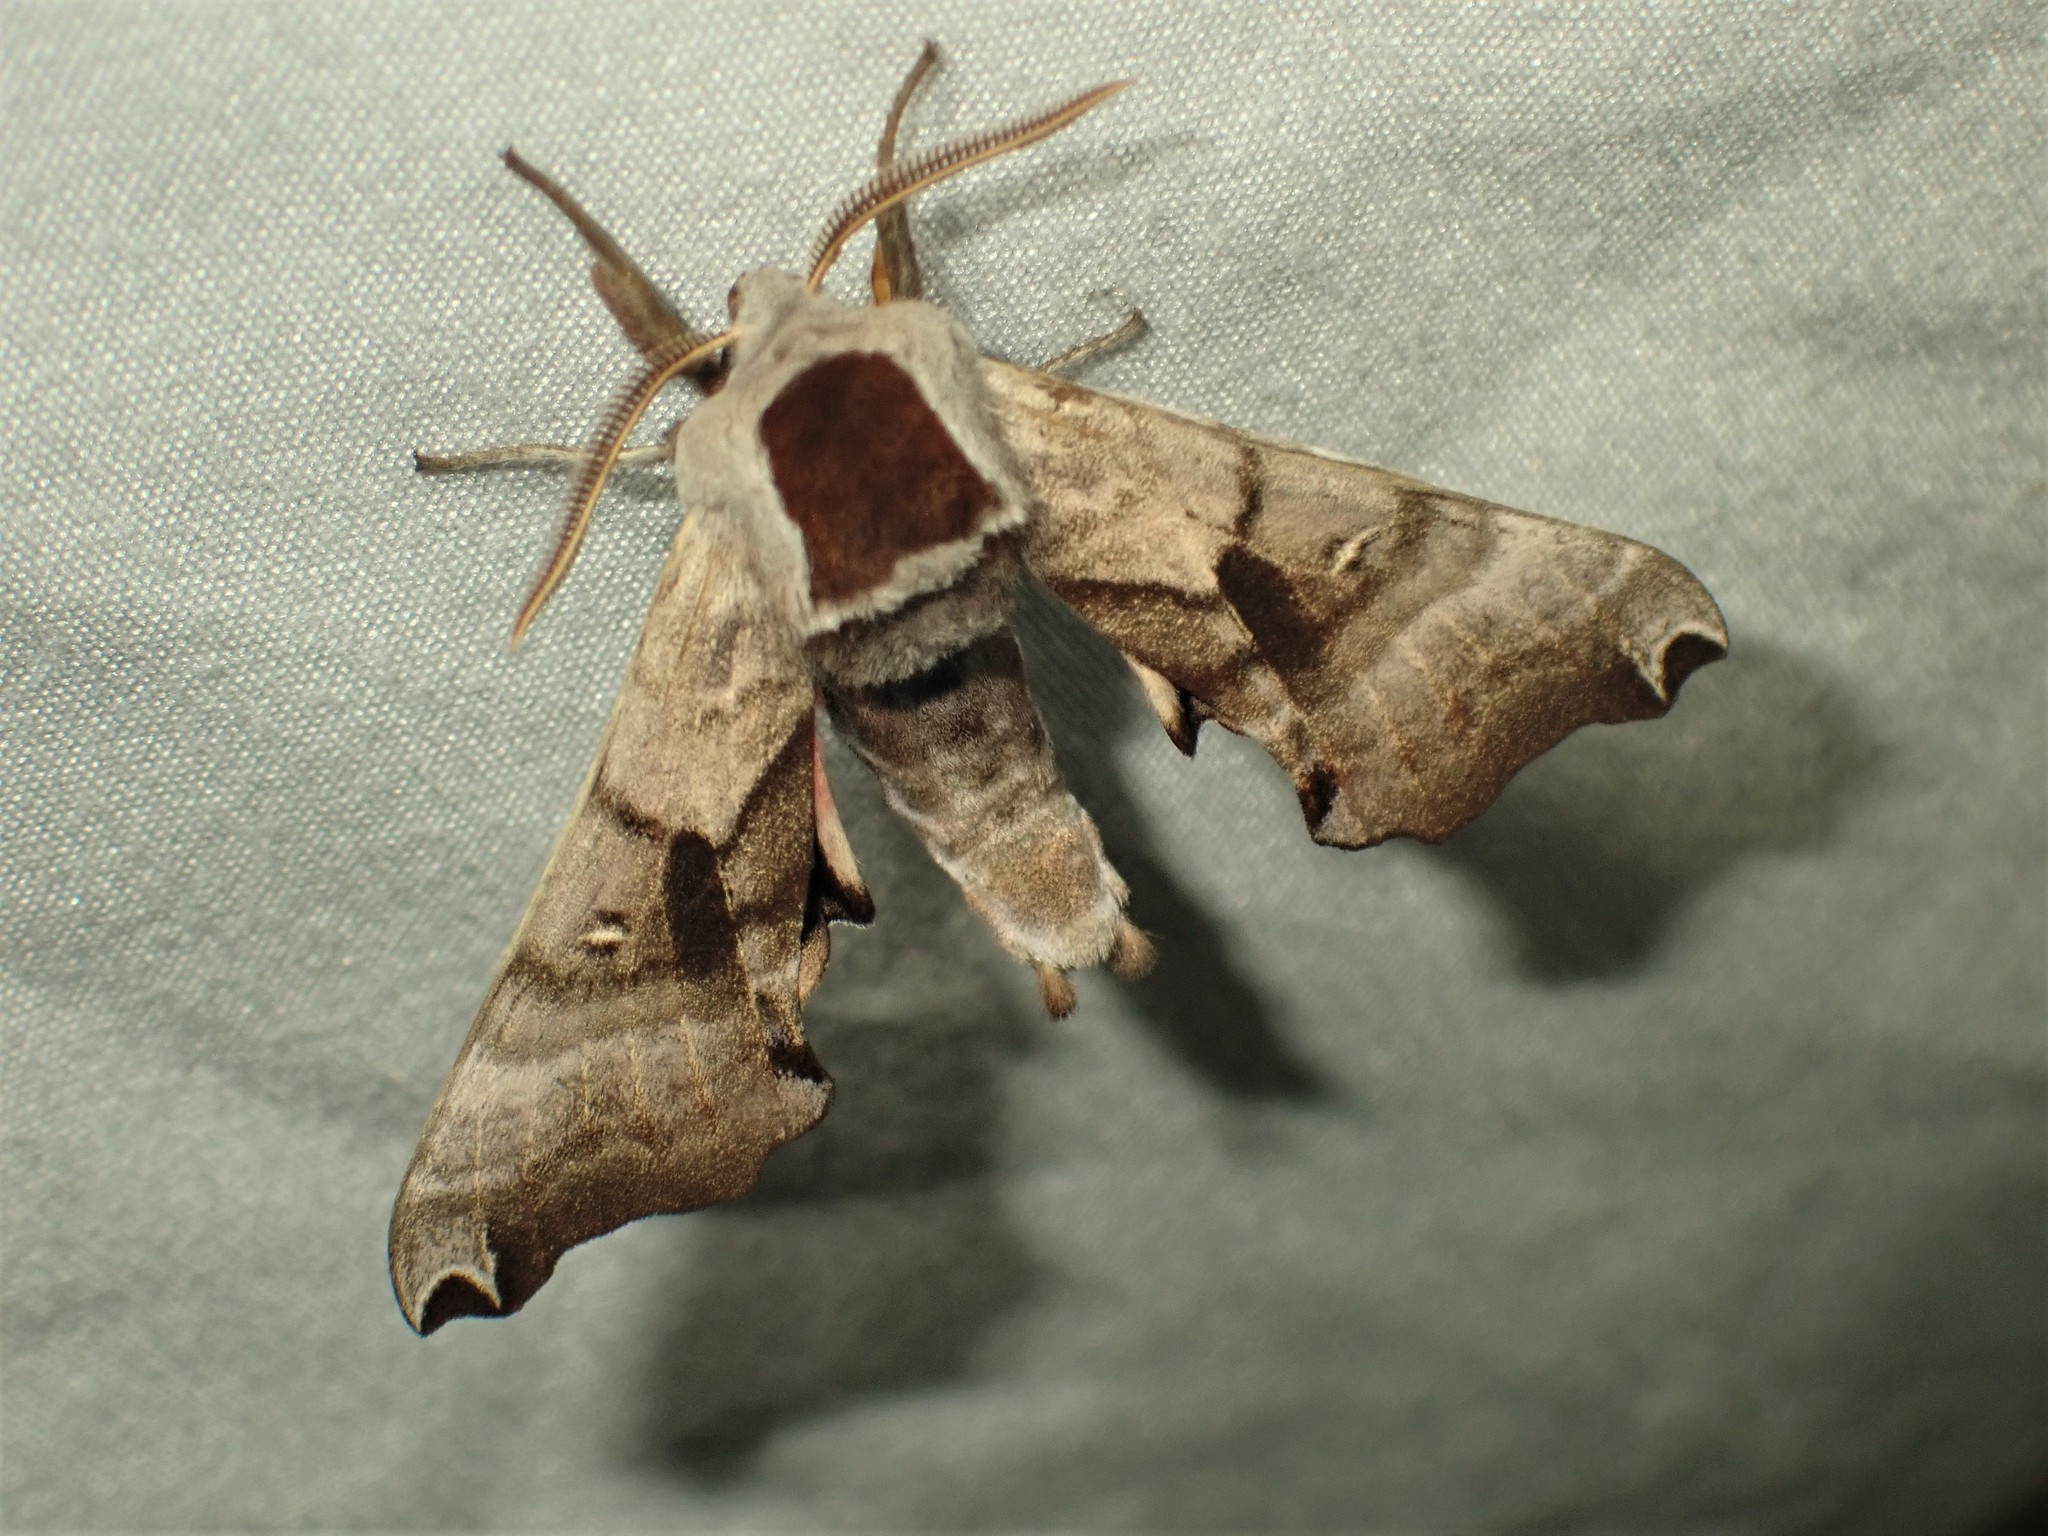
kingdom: Animalia
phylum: Arthropoda
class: Insecta
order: Lepidoptera
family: Sphingidae
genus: Smerinthus
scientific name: Smerinthus jamaicensis
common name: Twin spotted sphinx
